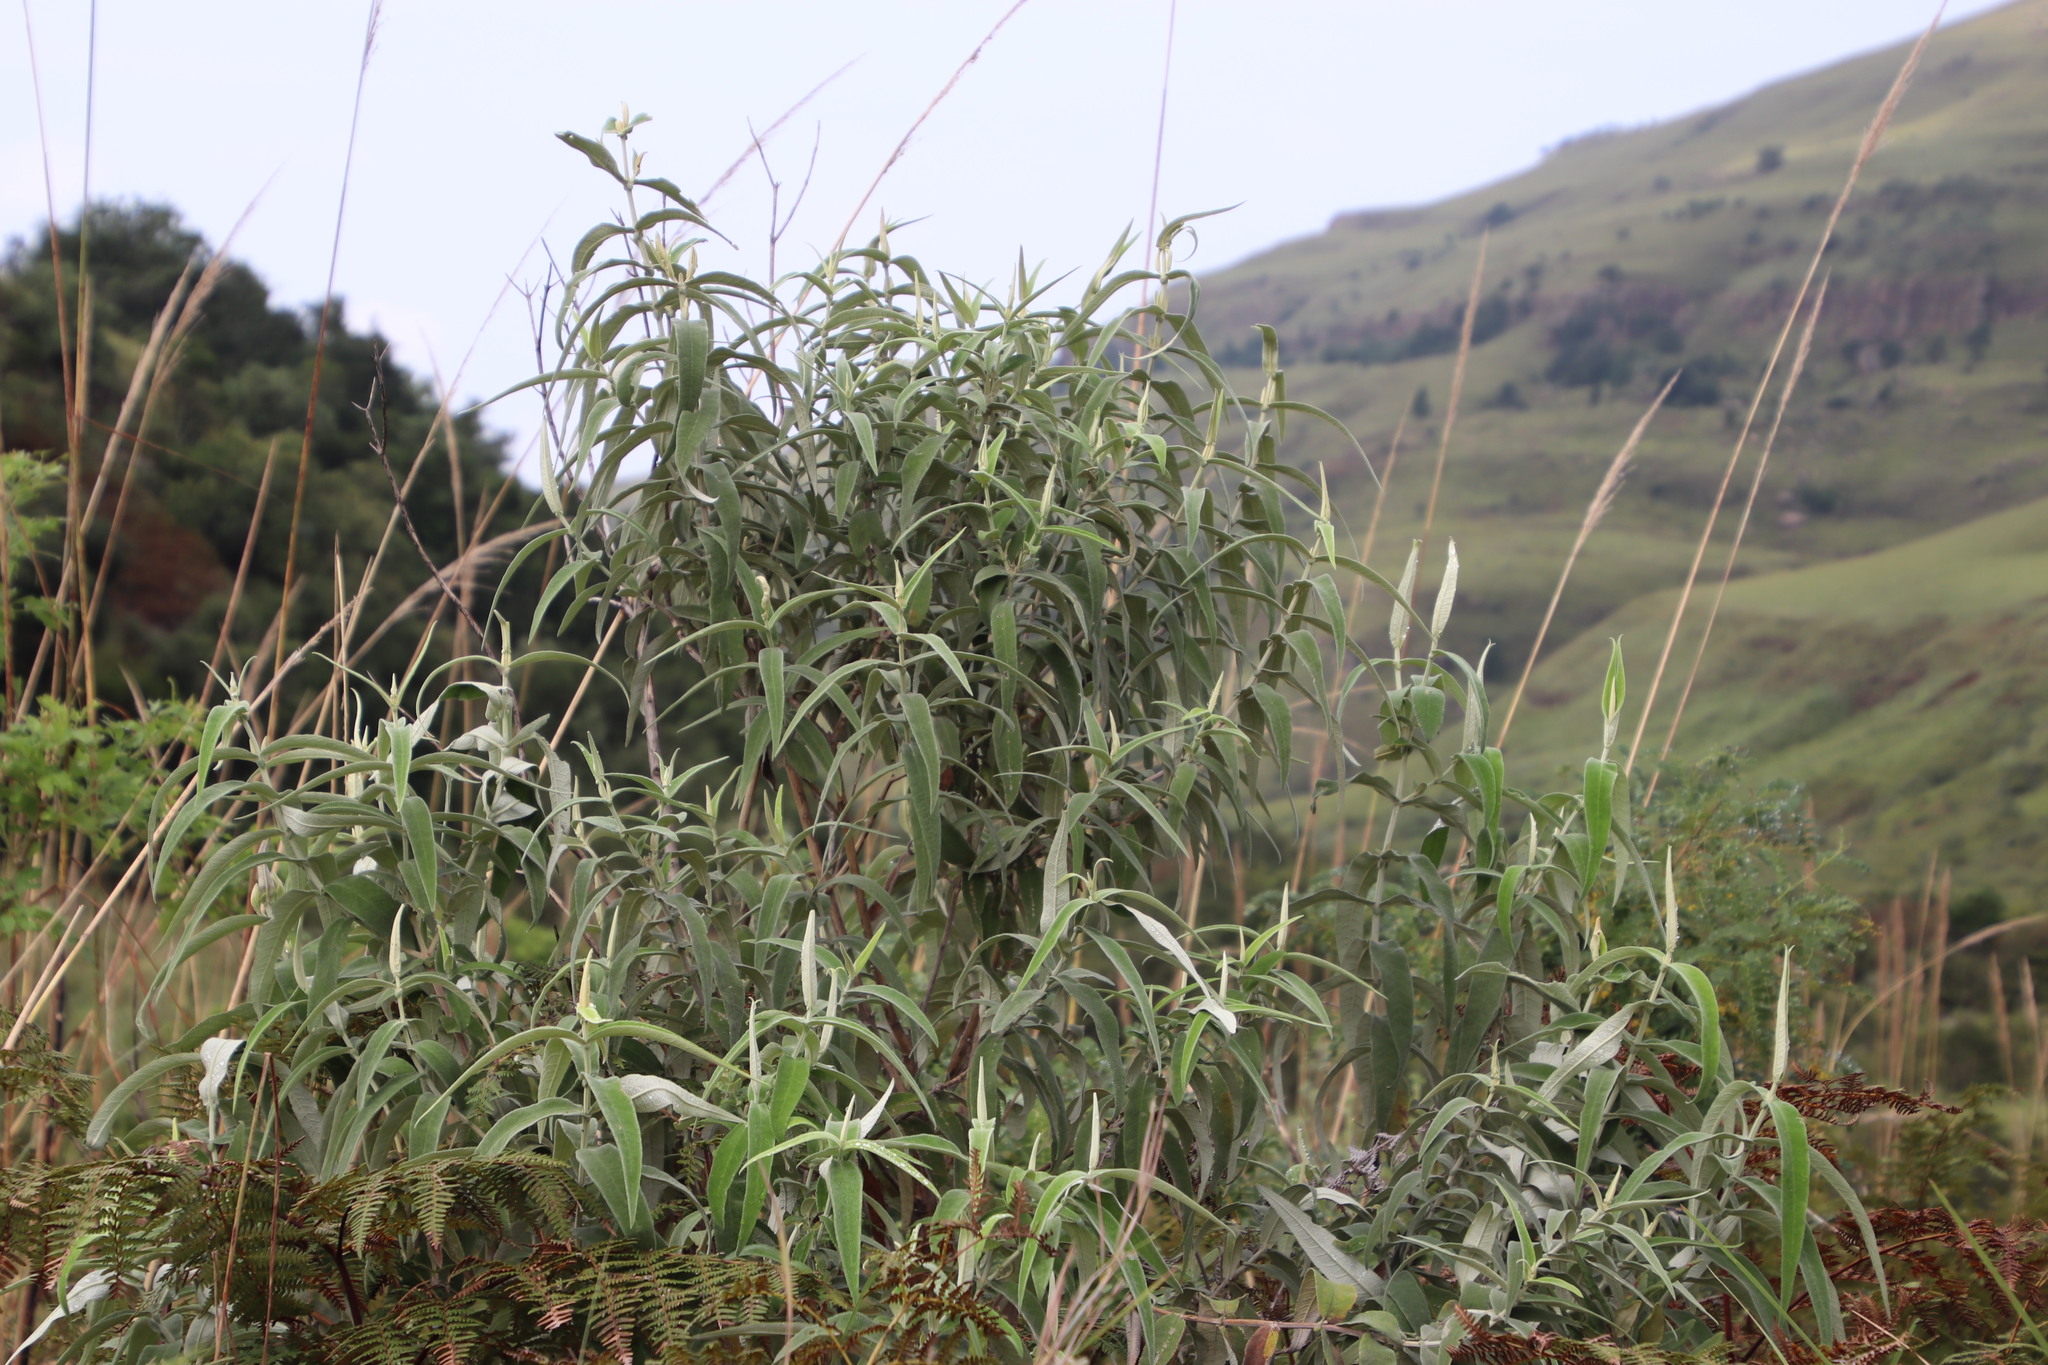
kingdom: Plantae
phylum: Tracheophyta
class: Magnoliopsida
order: Lamiales
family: Scrophulariaceae
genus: Buddleja
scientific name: Buddleja salviifolia
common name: Sagewood
